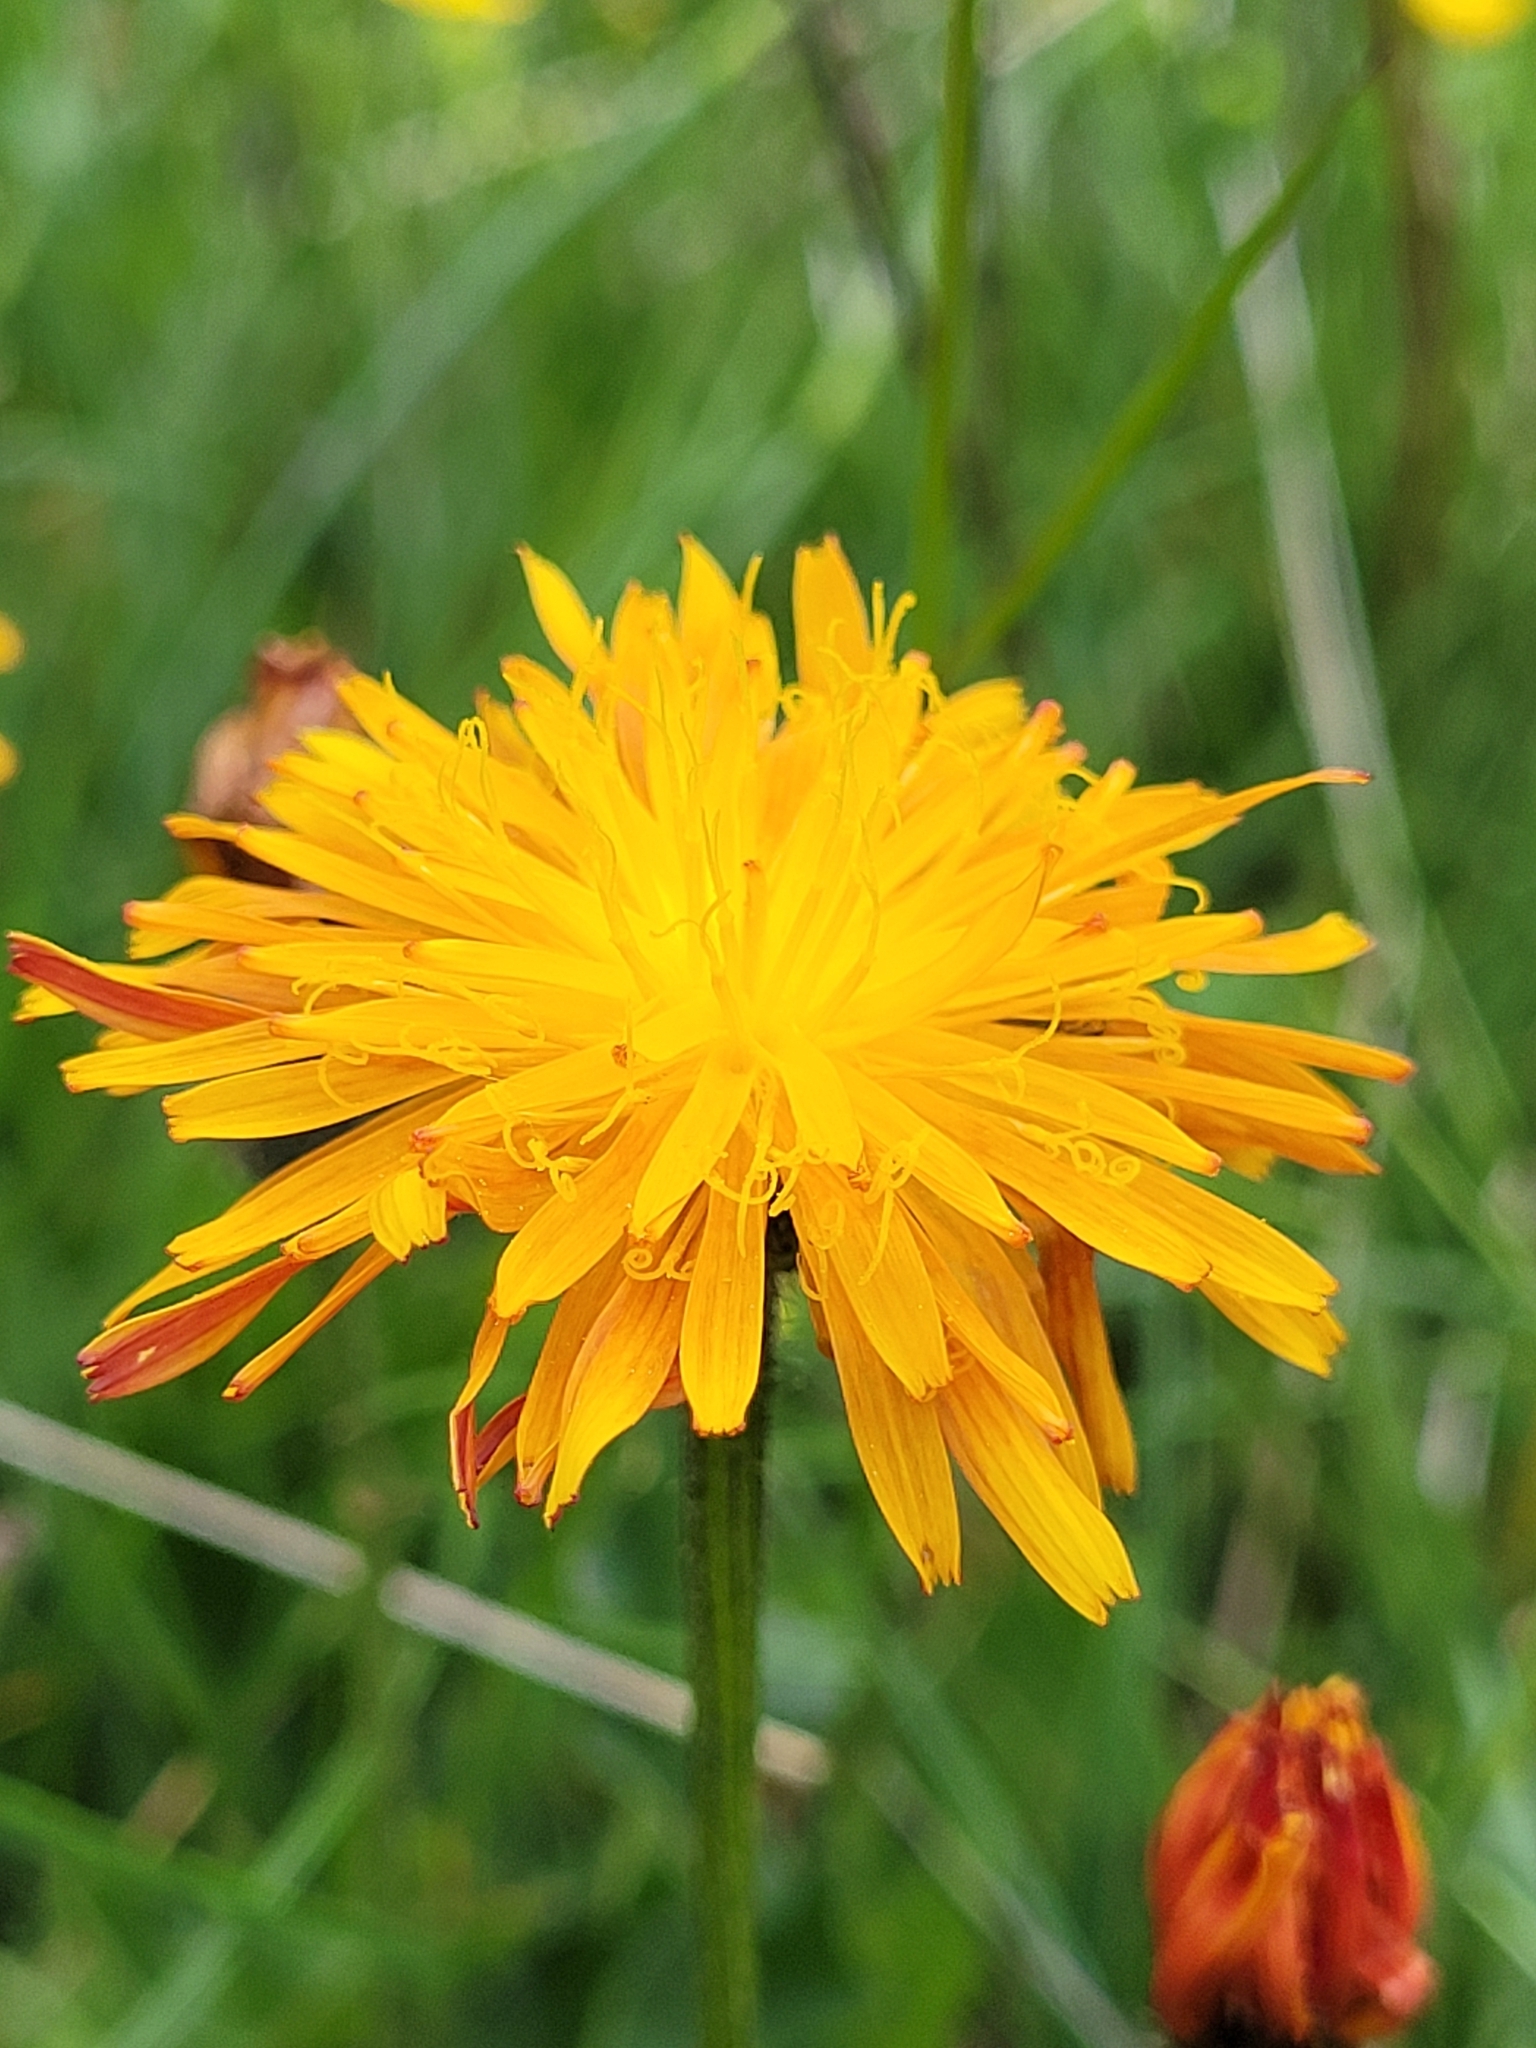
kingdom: Plantae
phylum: Tracheophyta
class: Magnoliopsida
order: Asterales
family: Asteraceae
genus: Crepis
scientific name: Crepis aurea
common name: Golden hawk's-beard
